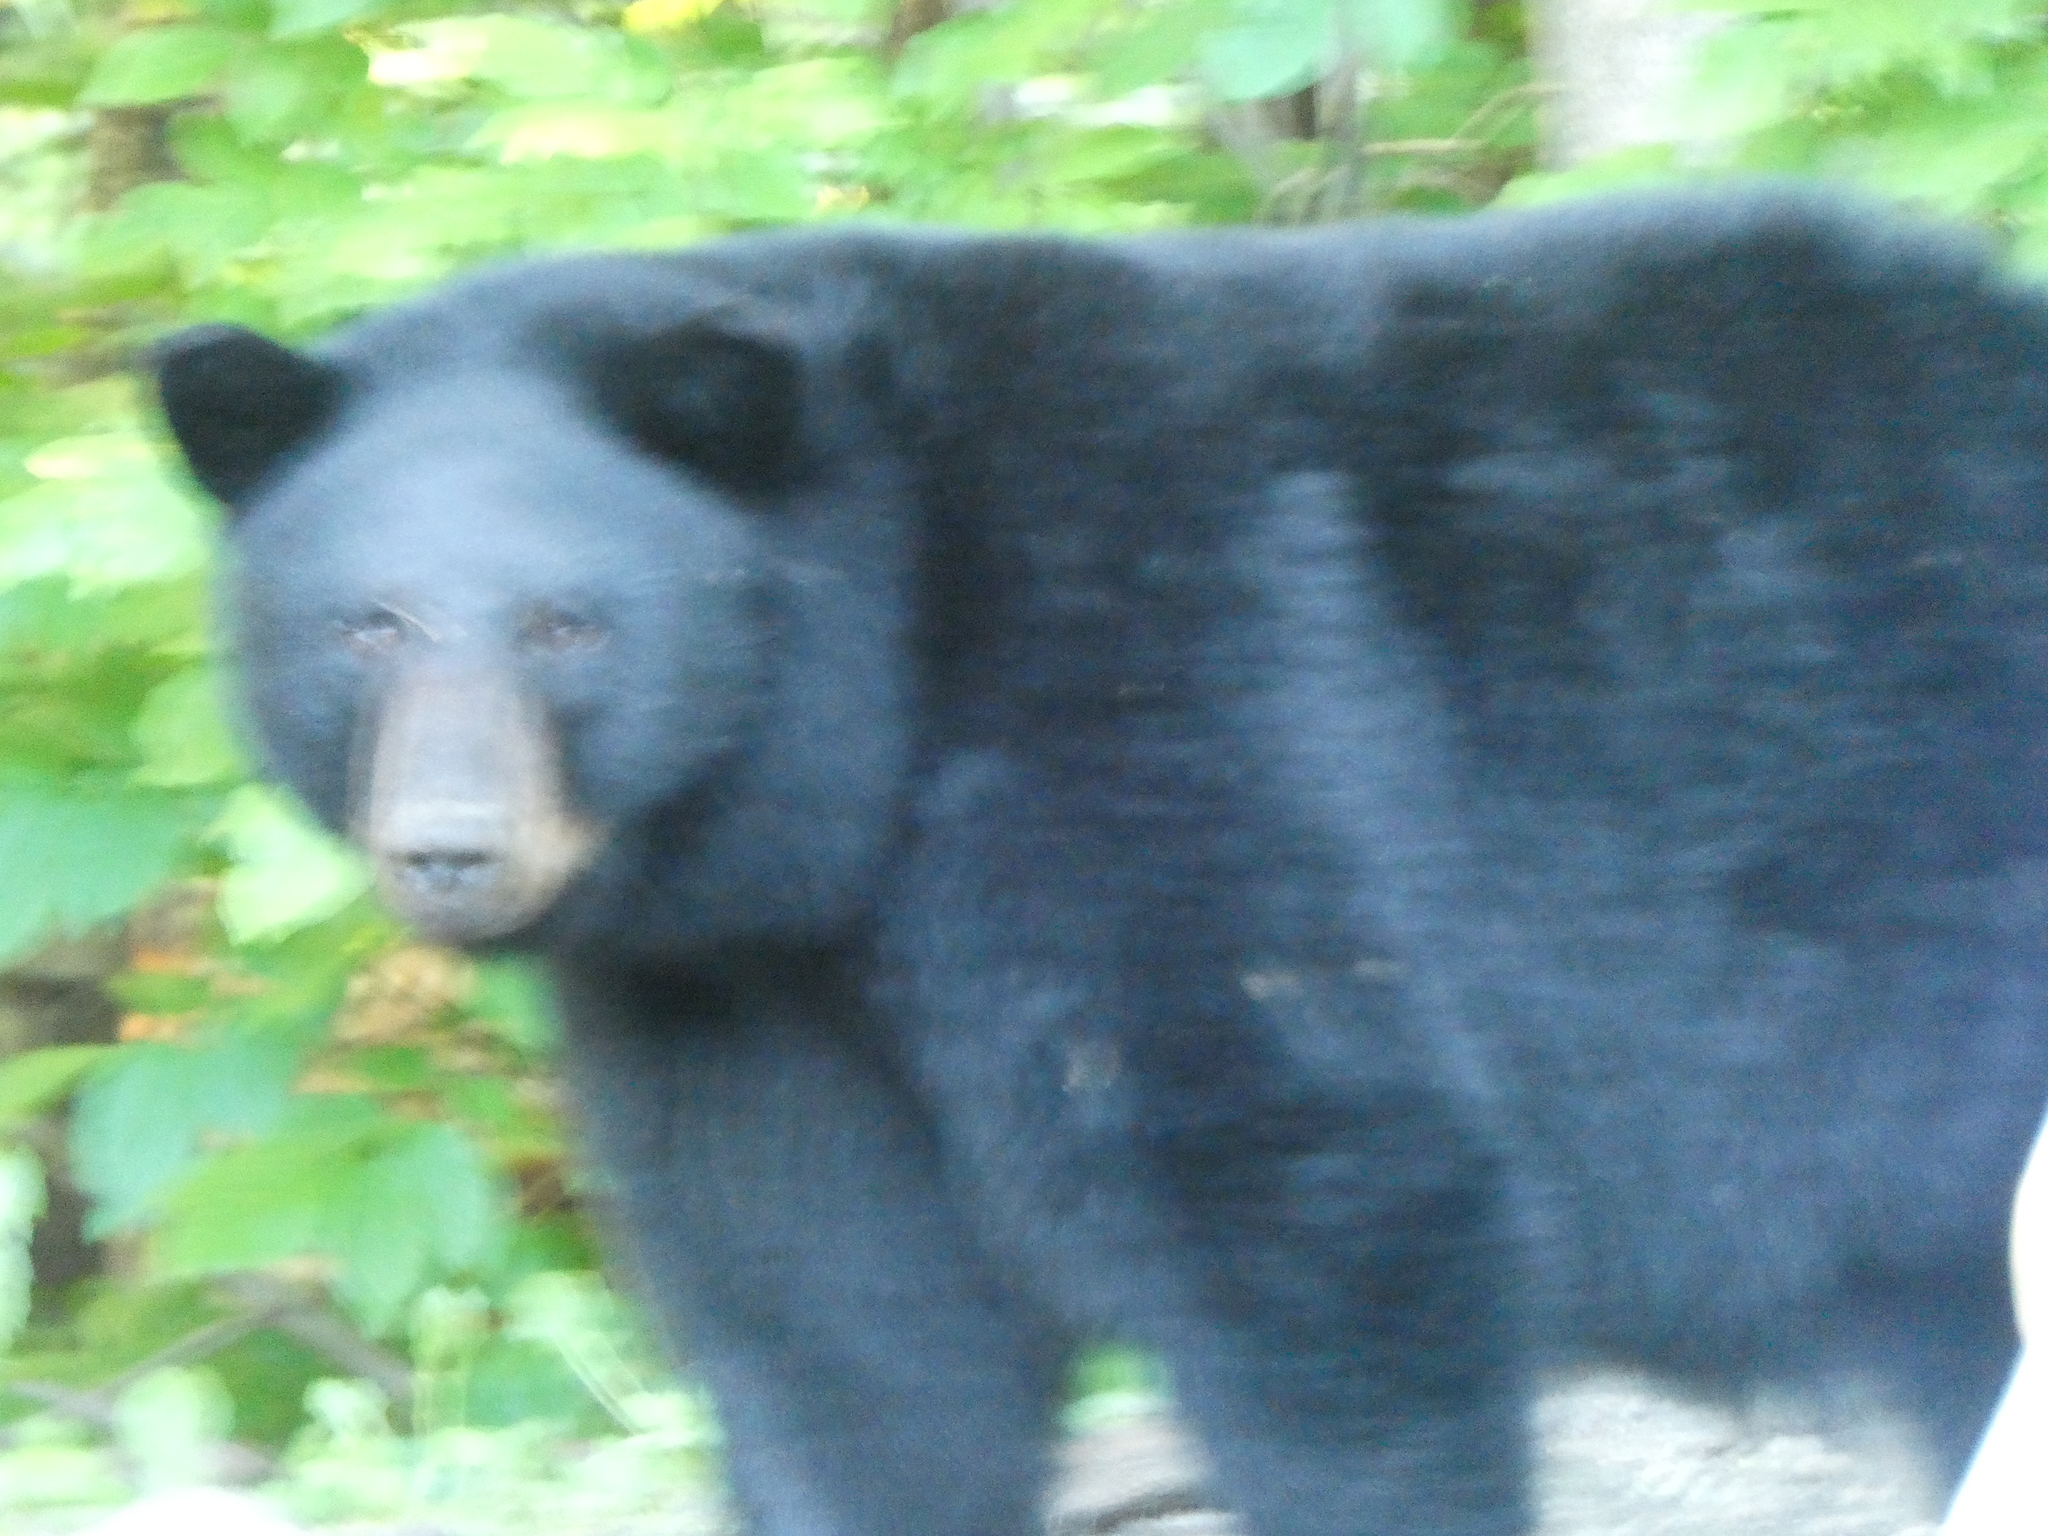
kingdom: Animalia
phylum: Chordata
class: Mammalia
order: Carnivora
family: Ursidae
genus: Ursus
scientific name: Ursus americanus
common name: American black bear
